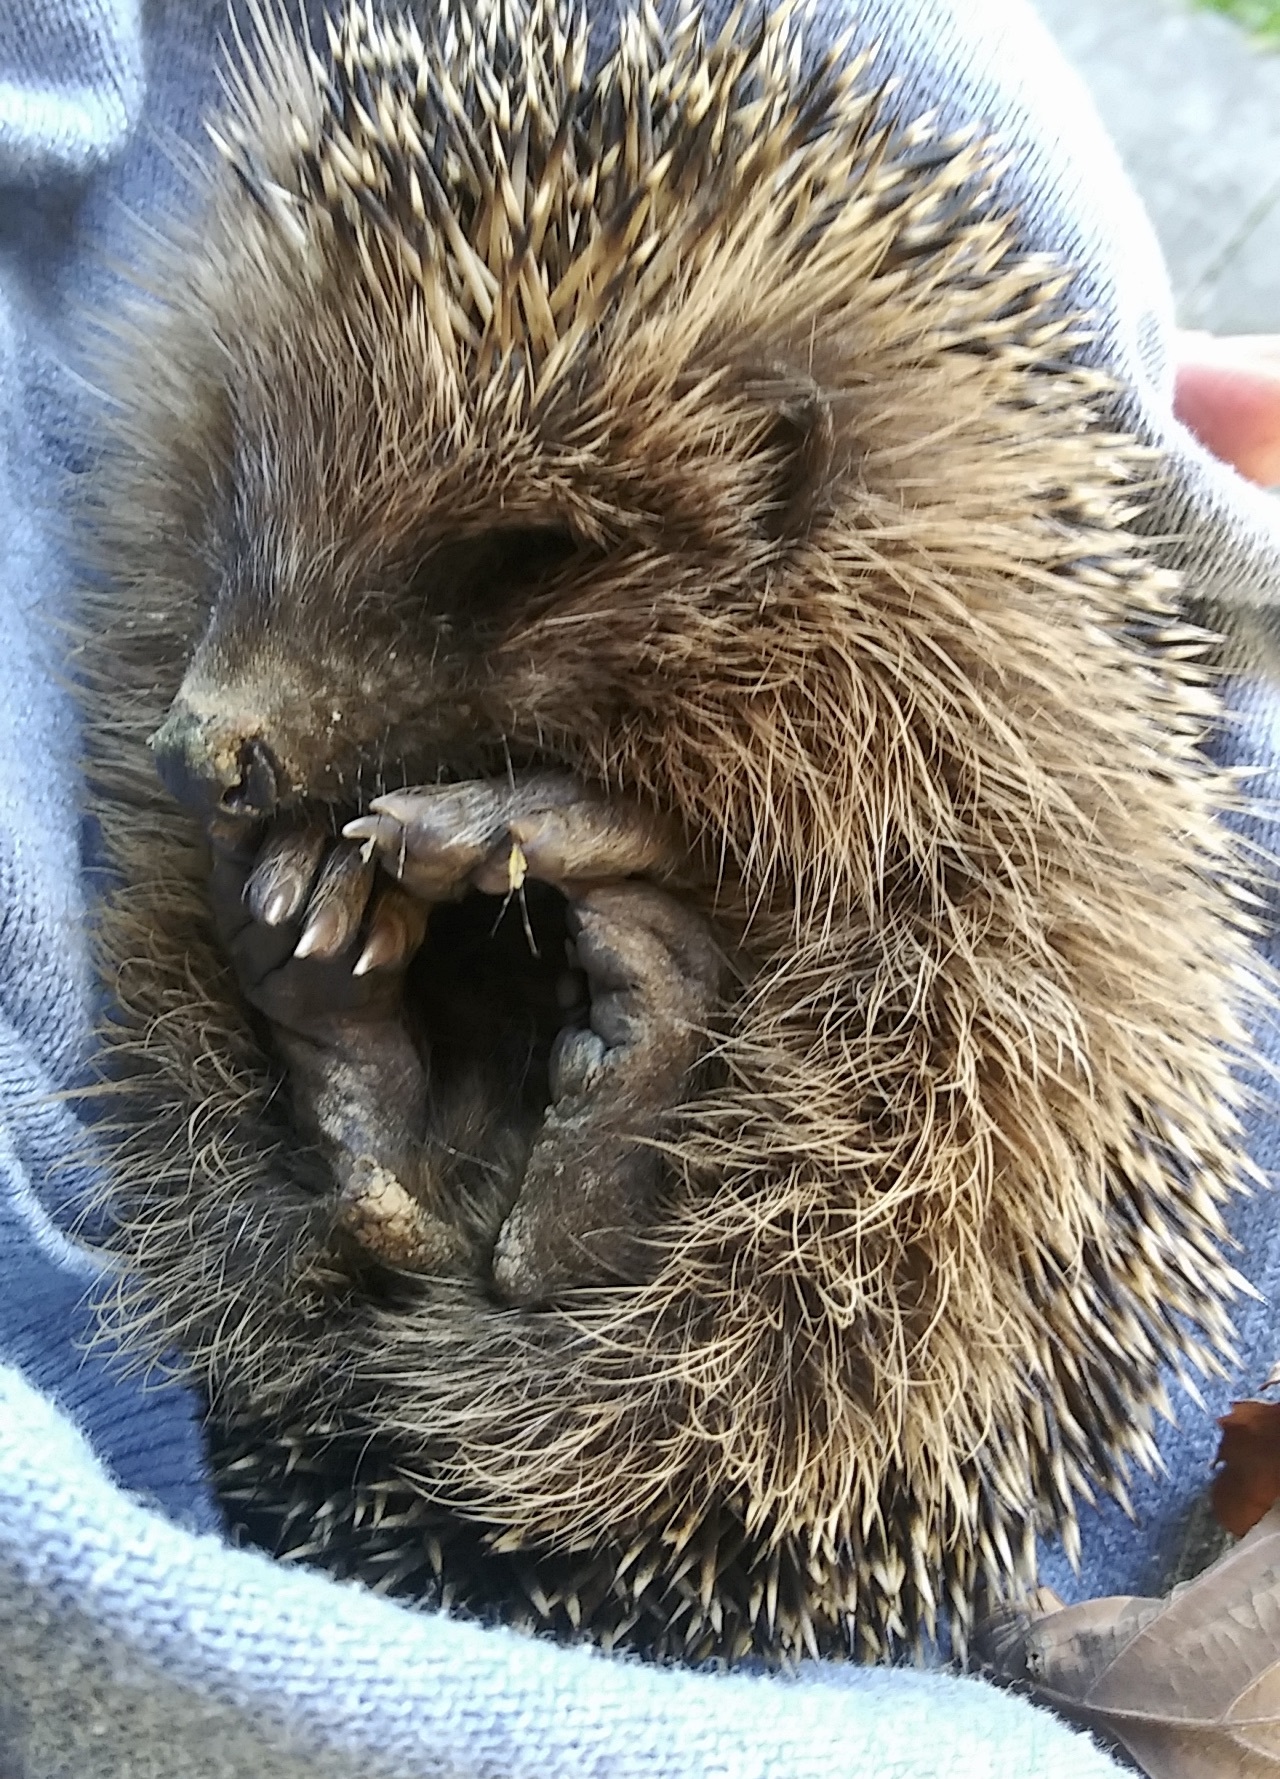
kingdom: Animalia
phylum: Chordata
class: Mammalia
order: Erinaceomorpha
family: Erinaceidae
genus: Erinaceus
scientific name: Erinaceus europaeus
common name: West european hedgehog
